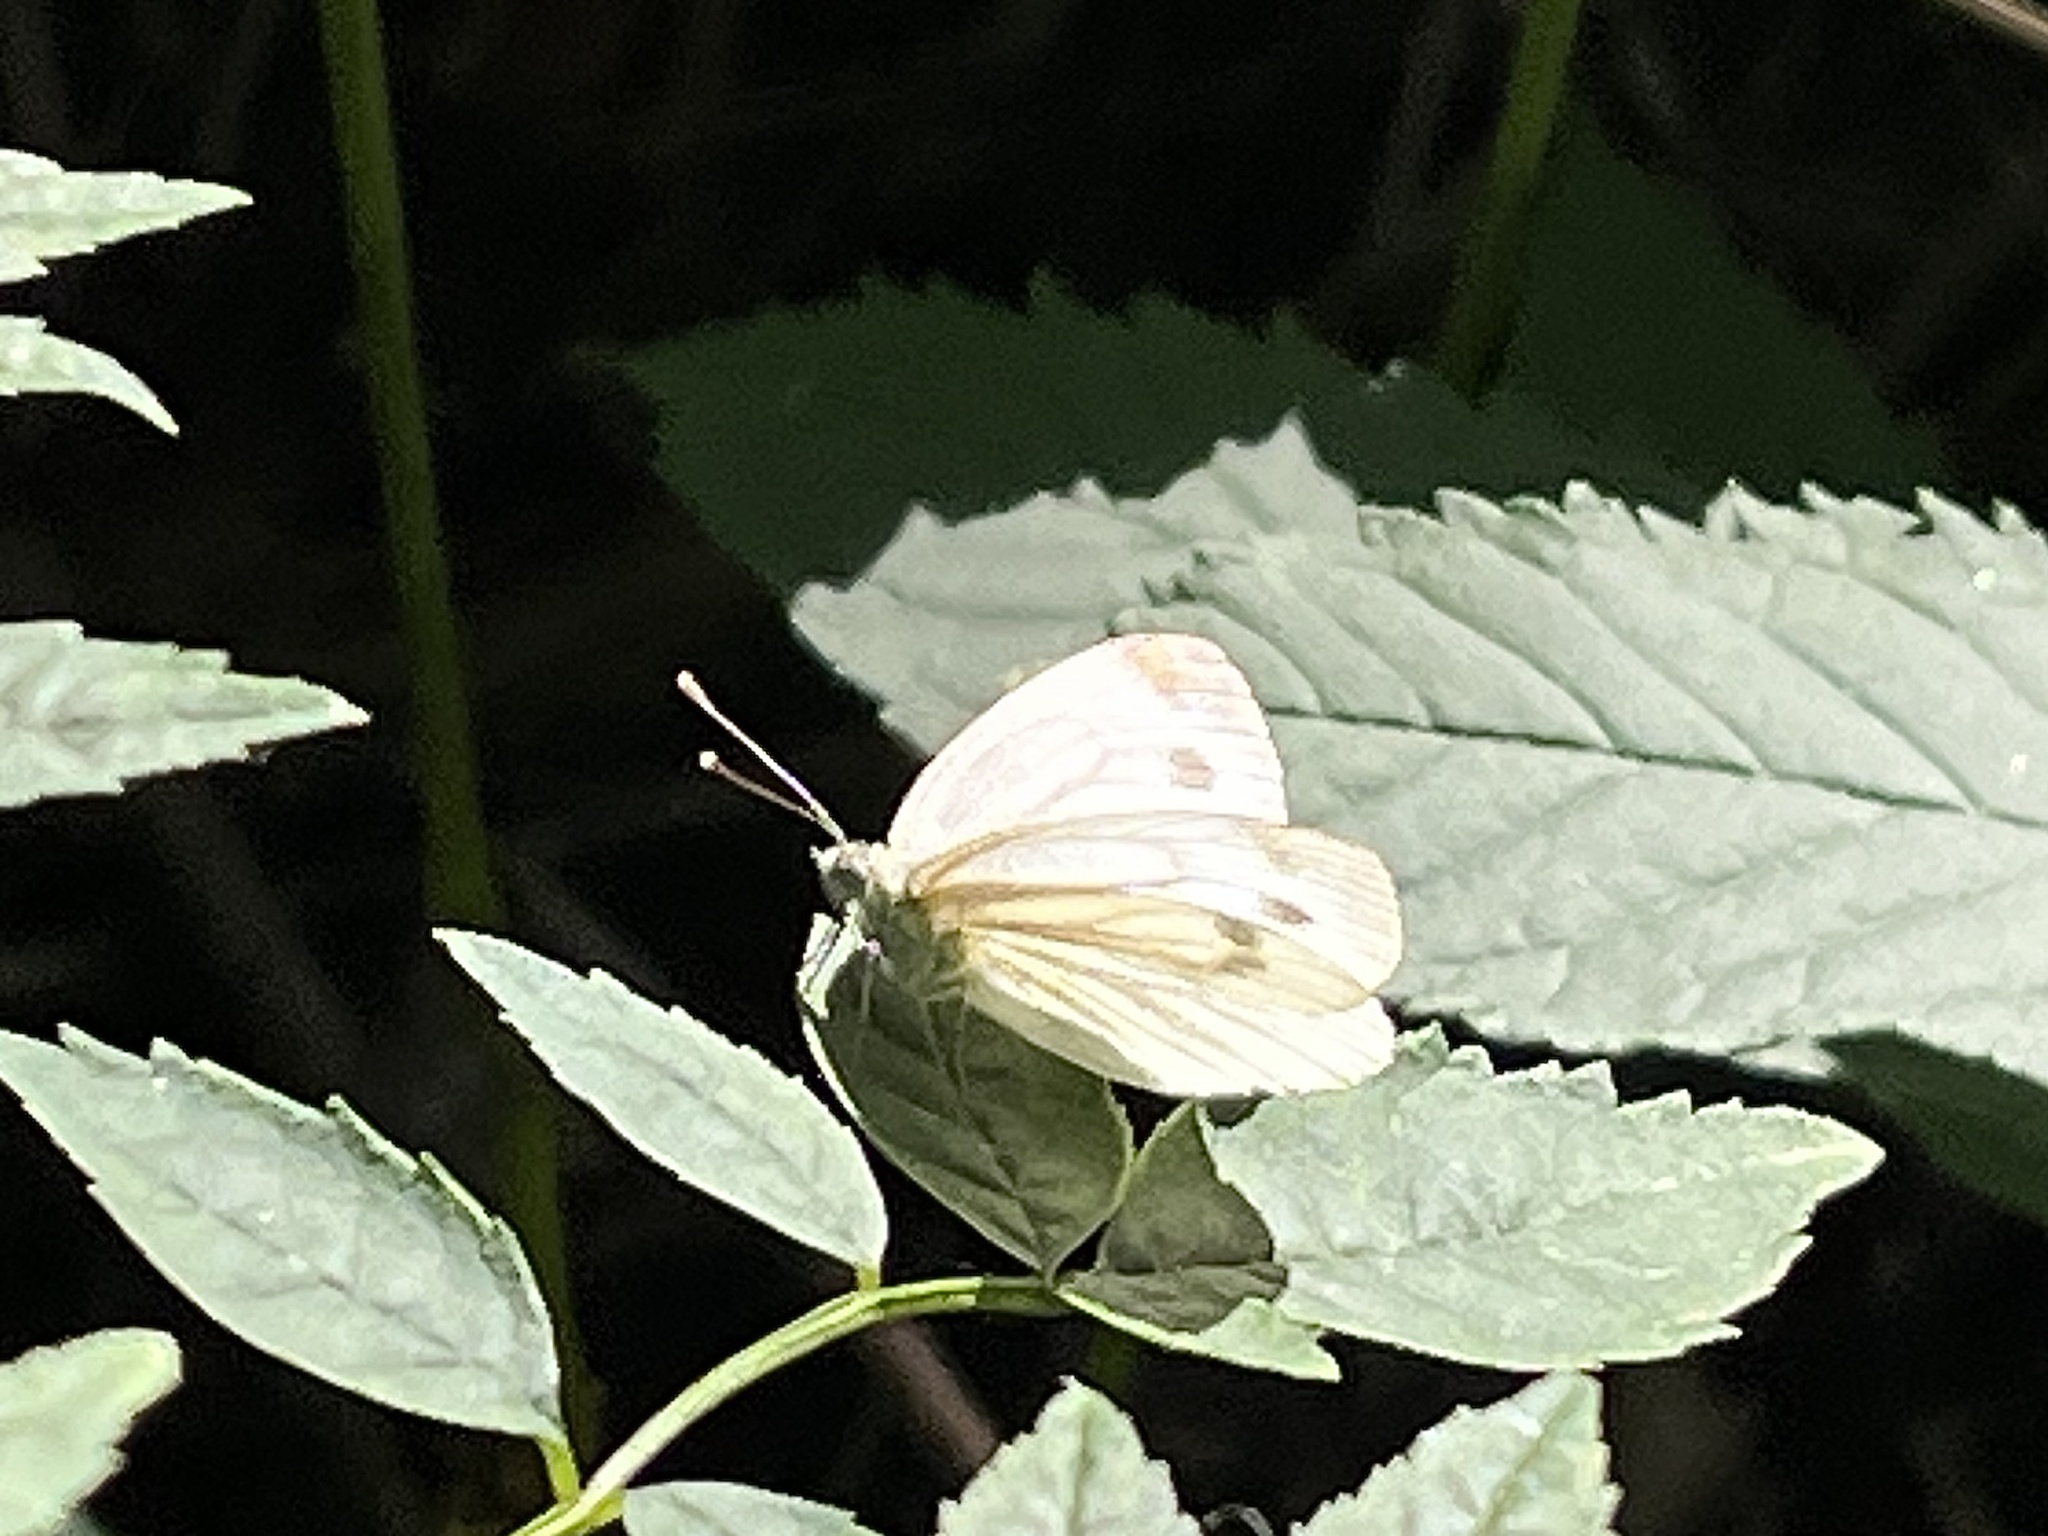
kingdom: Animalia
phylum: Arthropoda
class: Insecta
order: Lepidoptera
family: Pieridae
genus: Pieris
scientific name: Pieris napi
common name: Green-veined white
